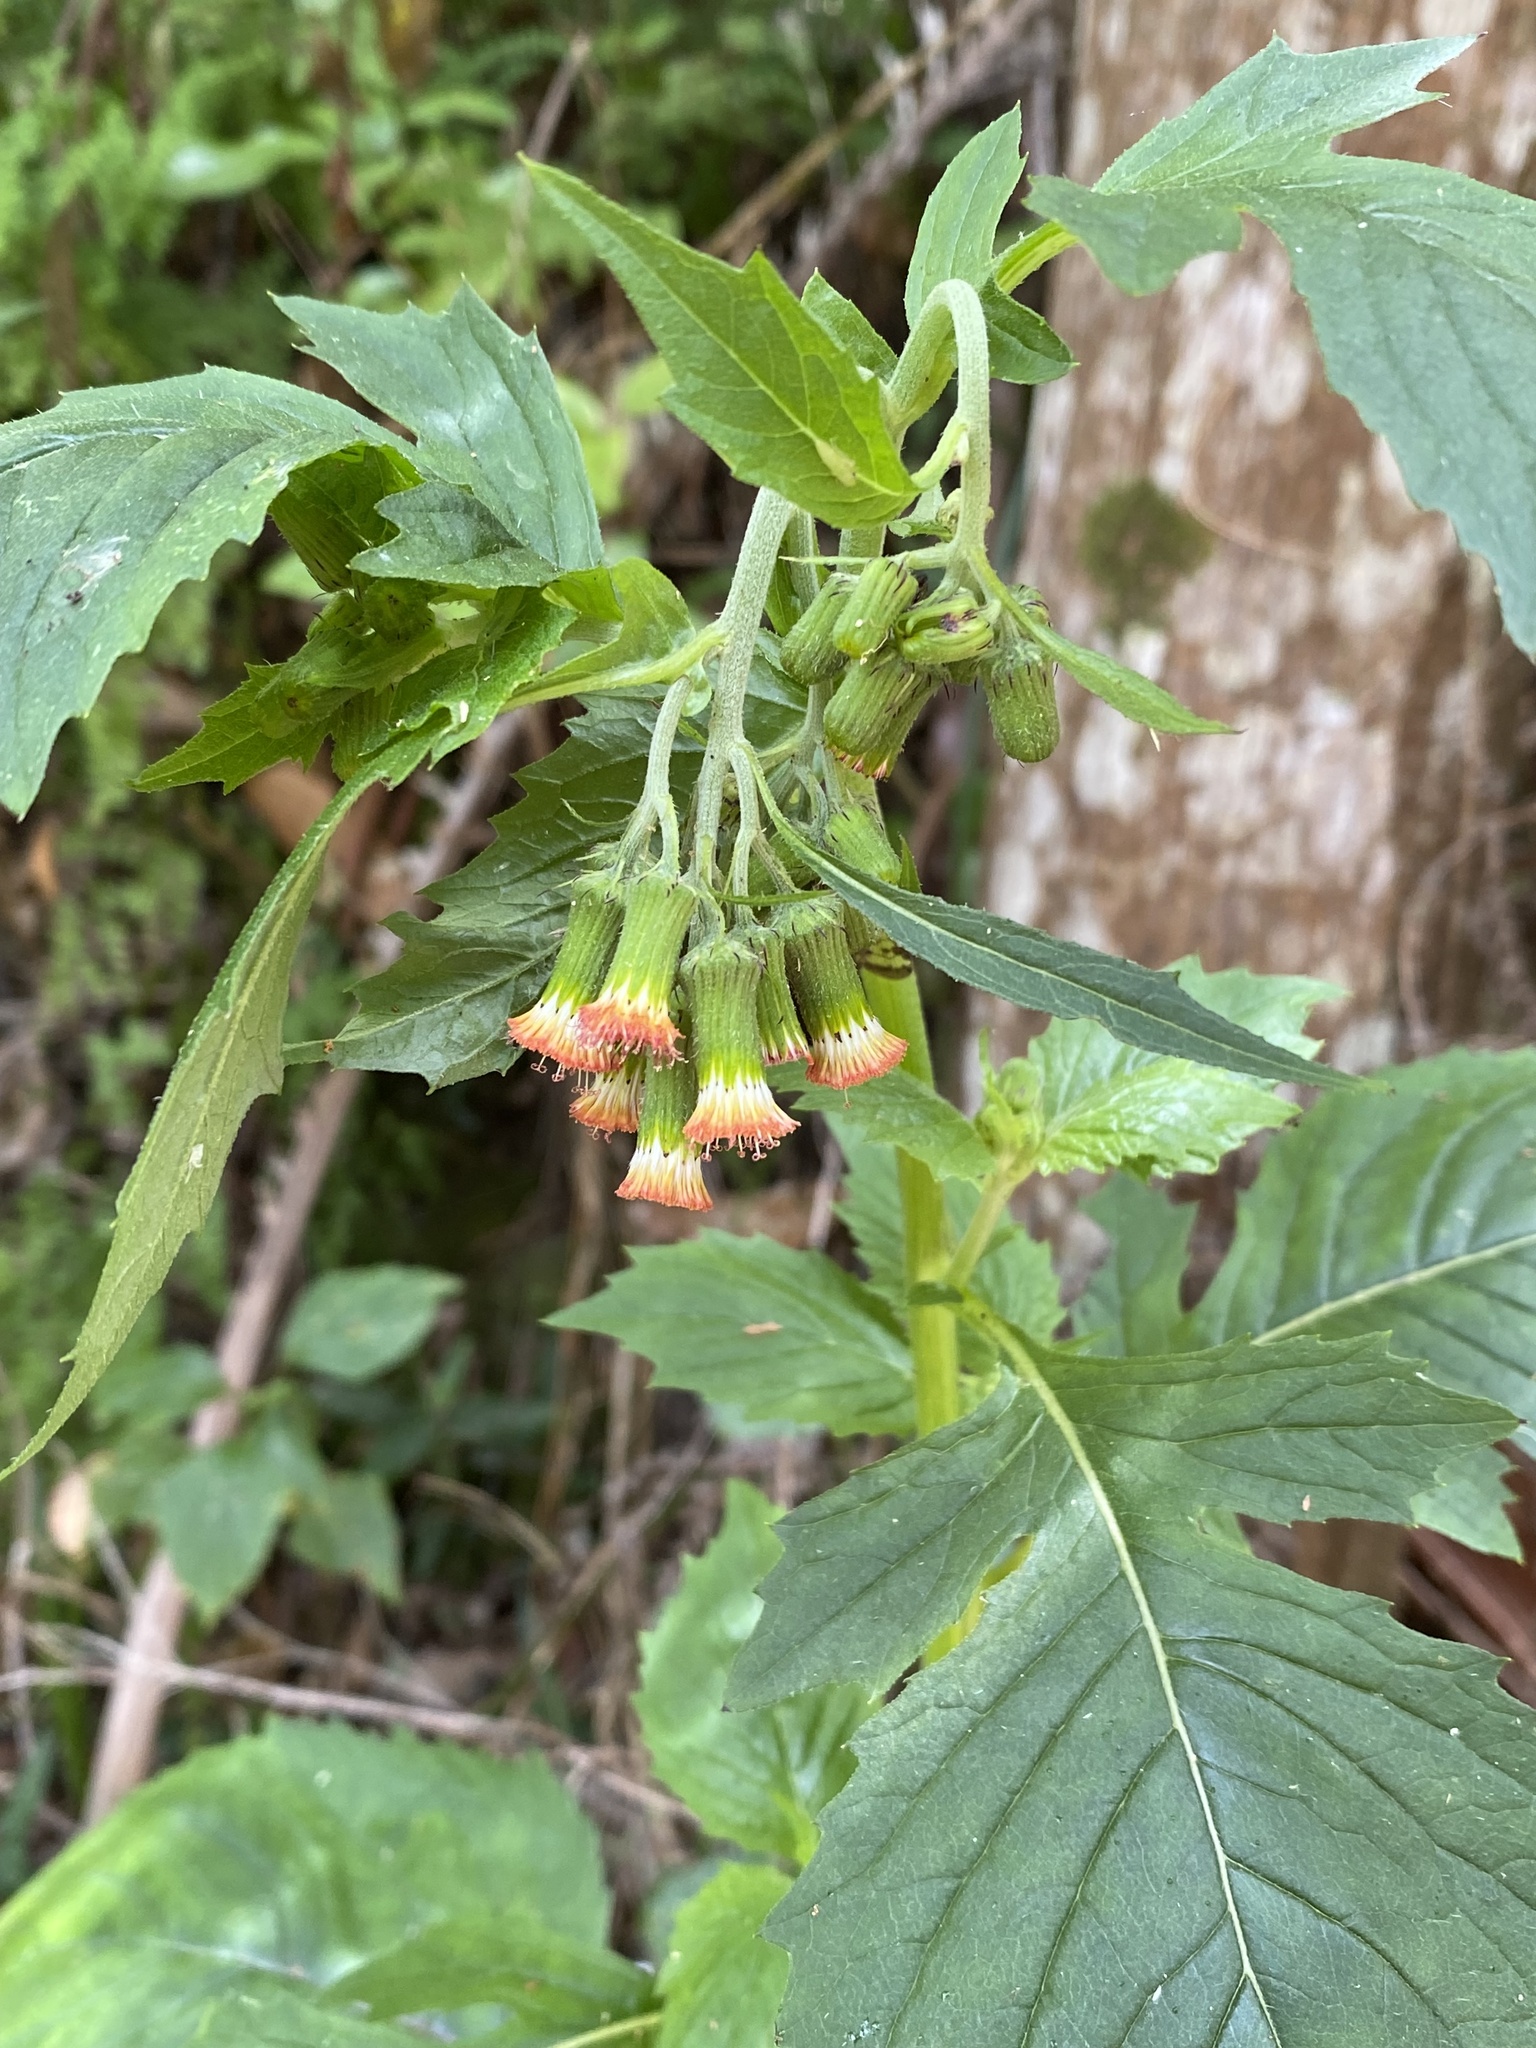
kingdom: Plantae
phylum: Tracheophyta
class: Magnoliopsida
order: Asterales
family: Asteraceae
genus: Crassocephalum
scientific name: Crassocephalum crepidioides
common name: Redflower ragleaf
